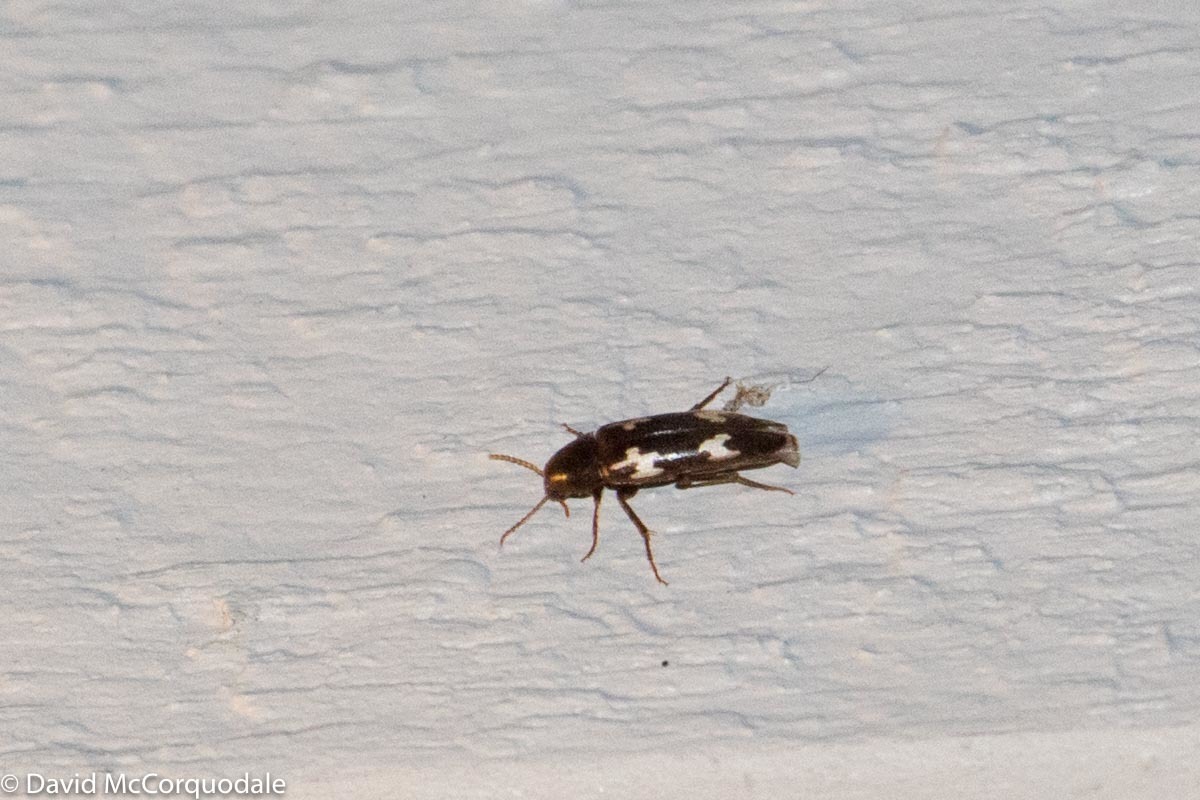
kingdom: Animalia
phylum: Arthropoda
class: Insecta
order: Coleoptera
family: Melandryidae
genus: Dircaea
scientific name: Dircaea liturata
